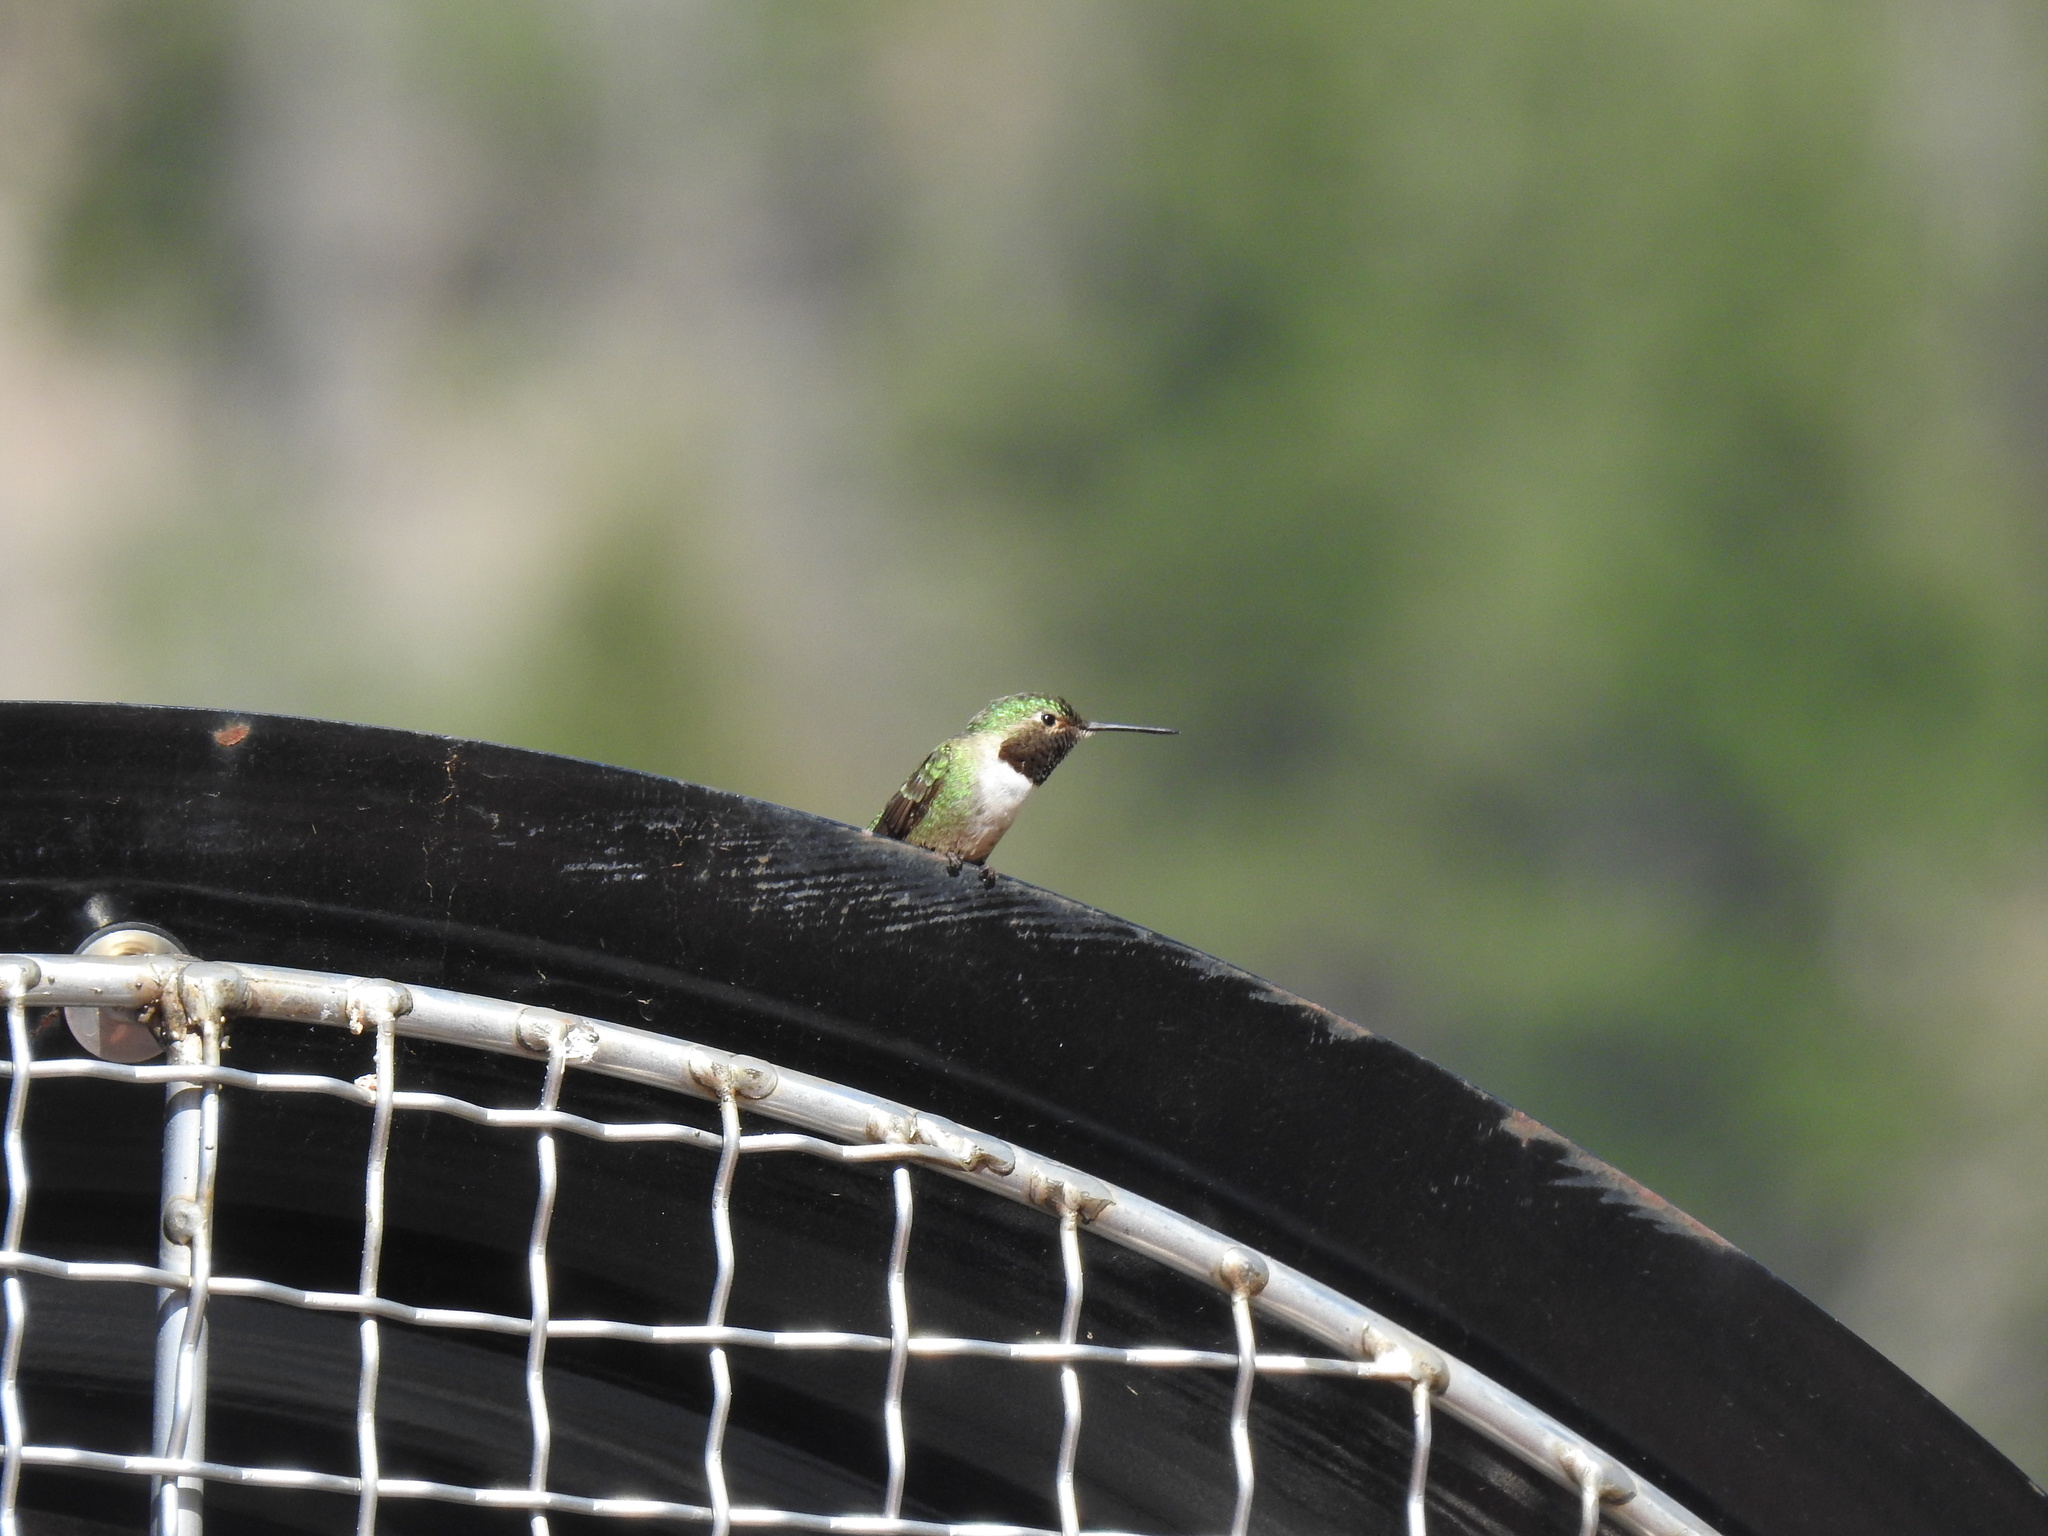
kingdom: Animalia
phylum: Chordata
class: Aves
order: Apodiformes
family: Trochilidae
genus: Selasphorus
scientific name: Selasphorus platycercus
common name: Broad-tailed hummingbird
